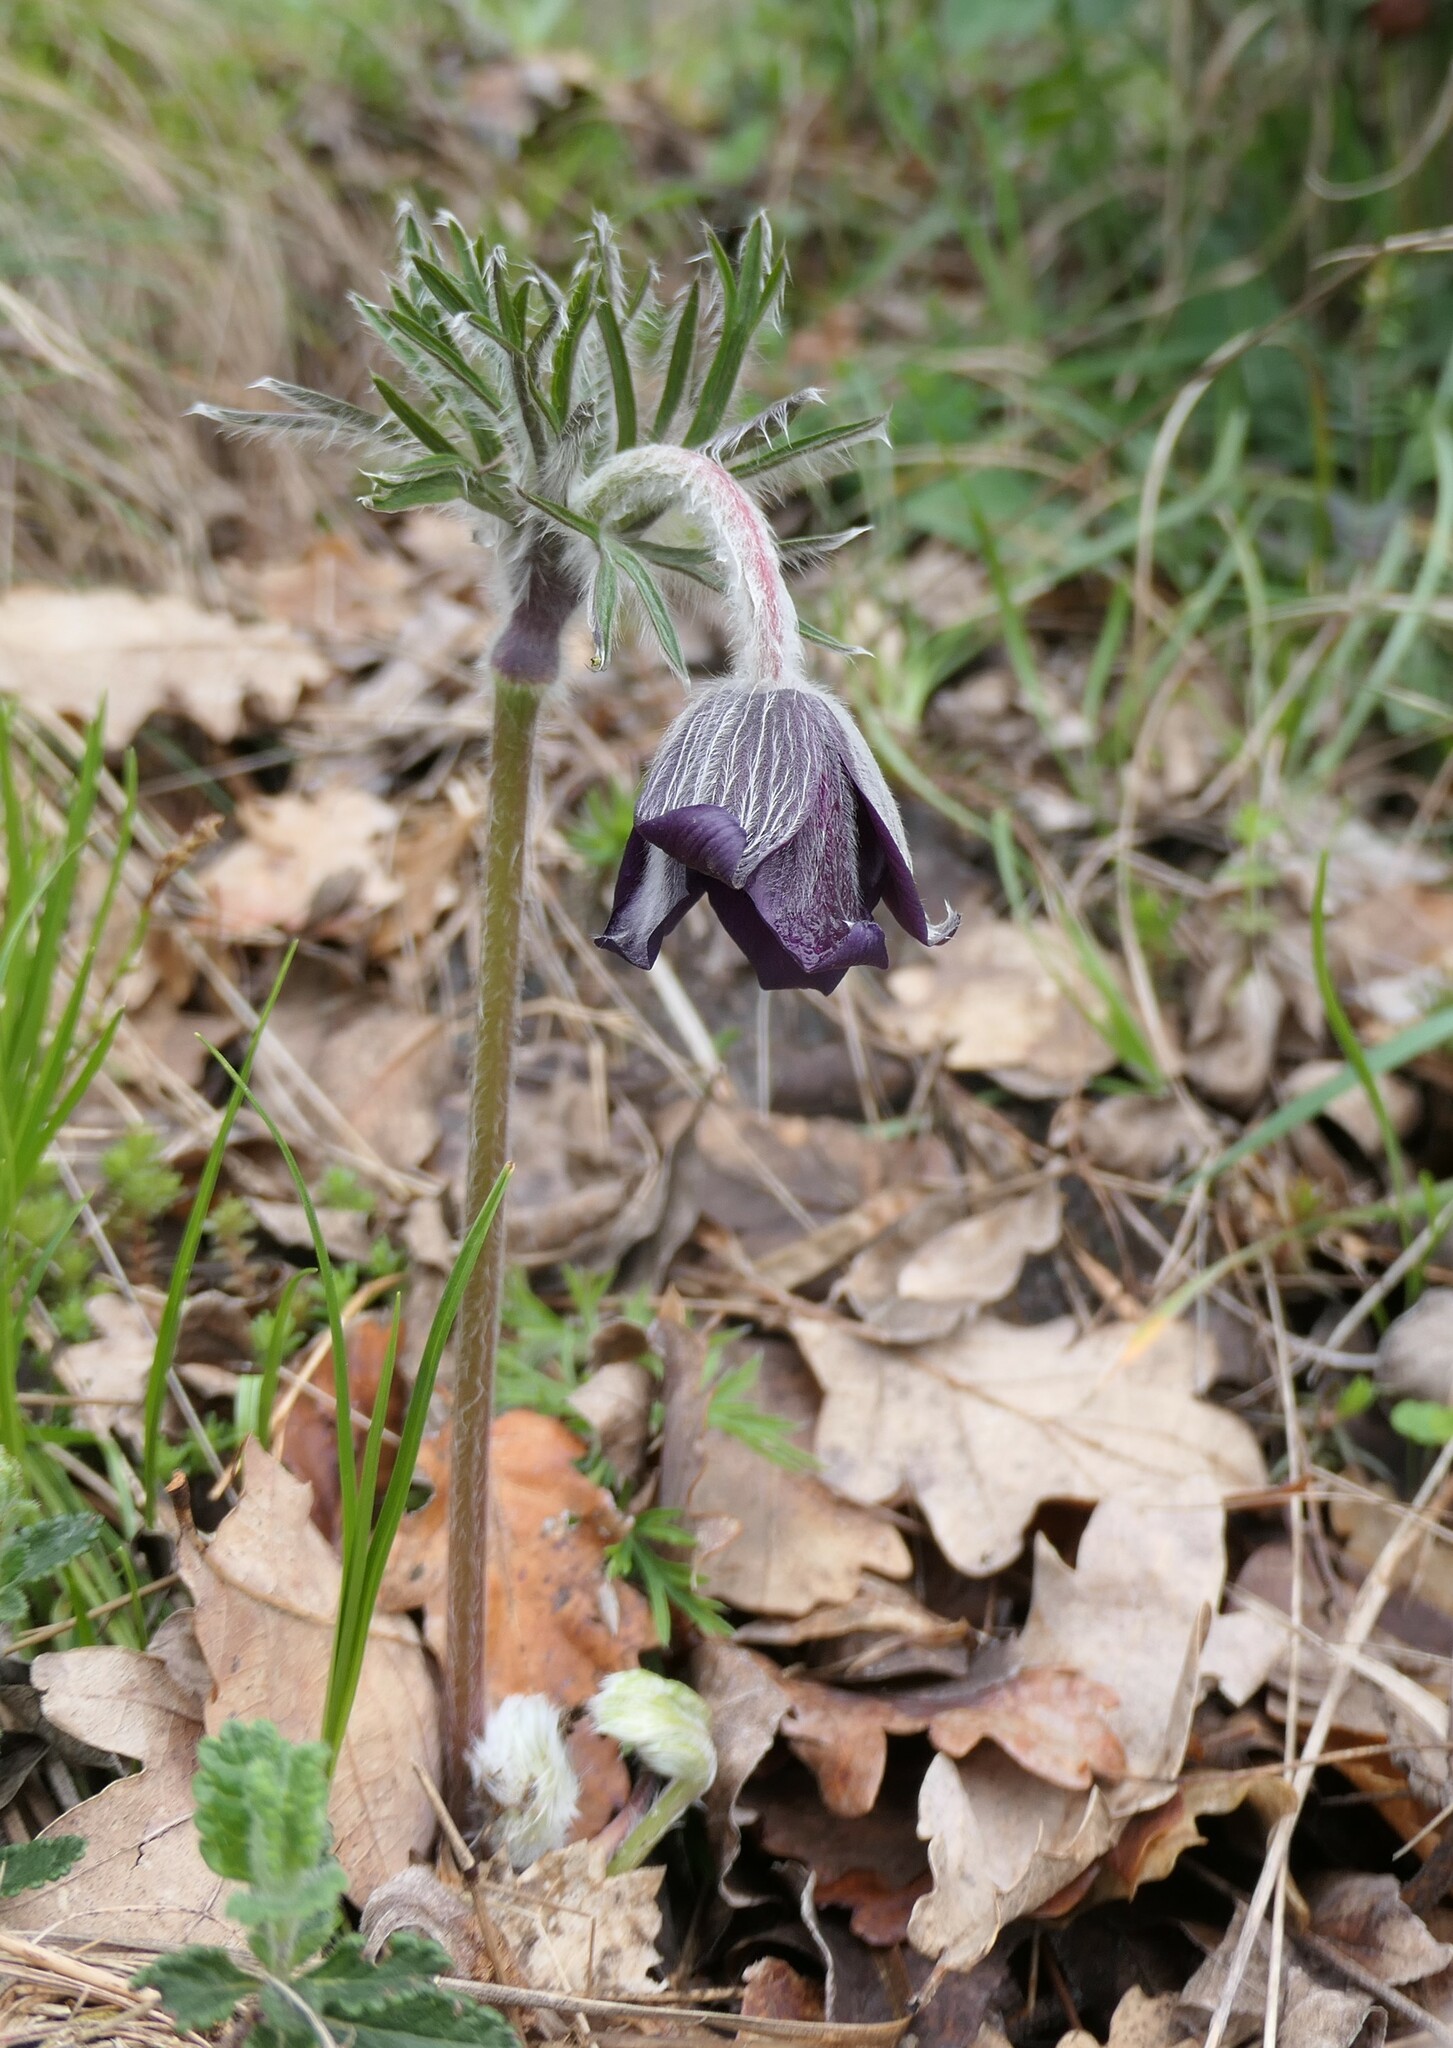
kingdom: Plantae
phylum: Tracheophyta
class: Magnoliopsida
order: Ranunculales
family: Ranunculaceae
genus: Pulsatilla
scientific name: Pulsatilla montana
